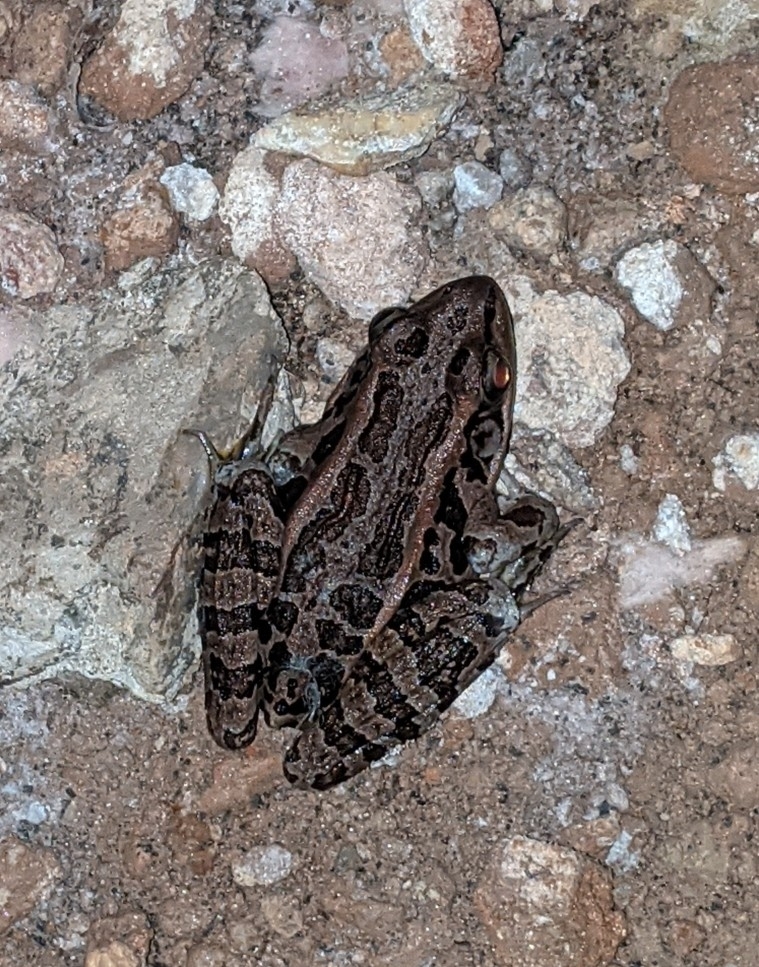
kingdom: Animalia
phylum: Chordata
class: Amphibia
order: Anura
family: Ranidae
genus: Lithobates
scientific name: Lithobates palustris
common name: Pickerel frog
